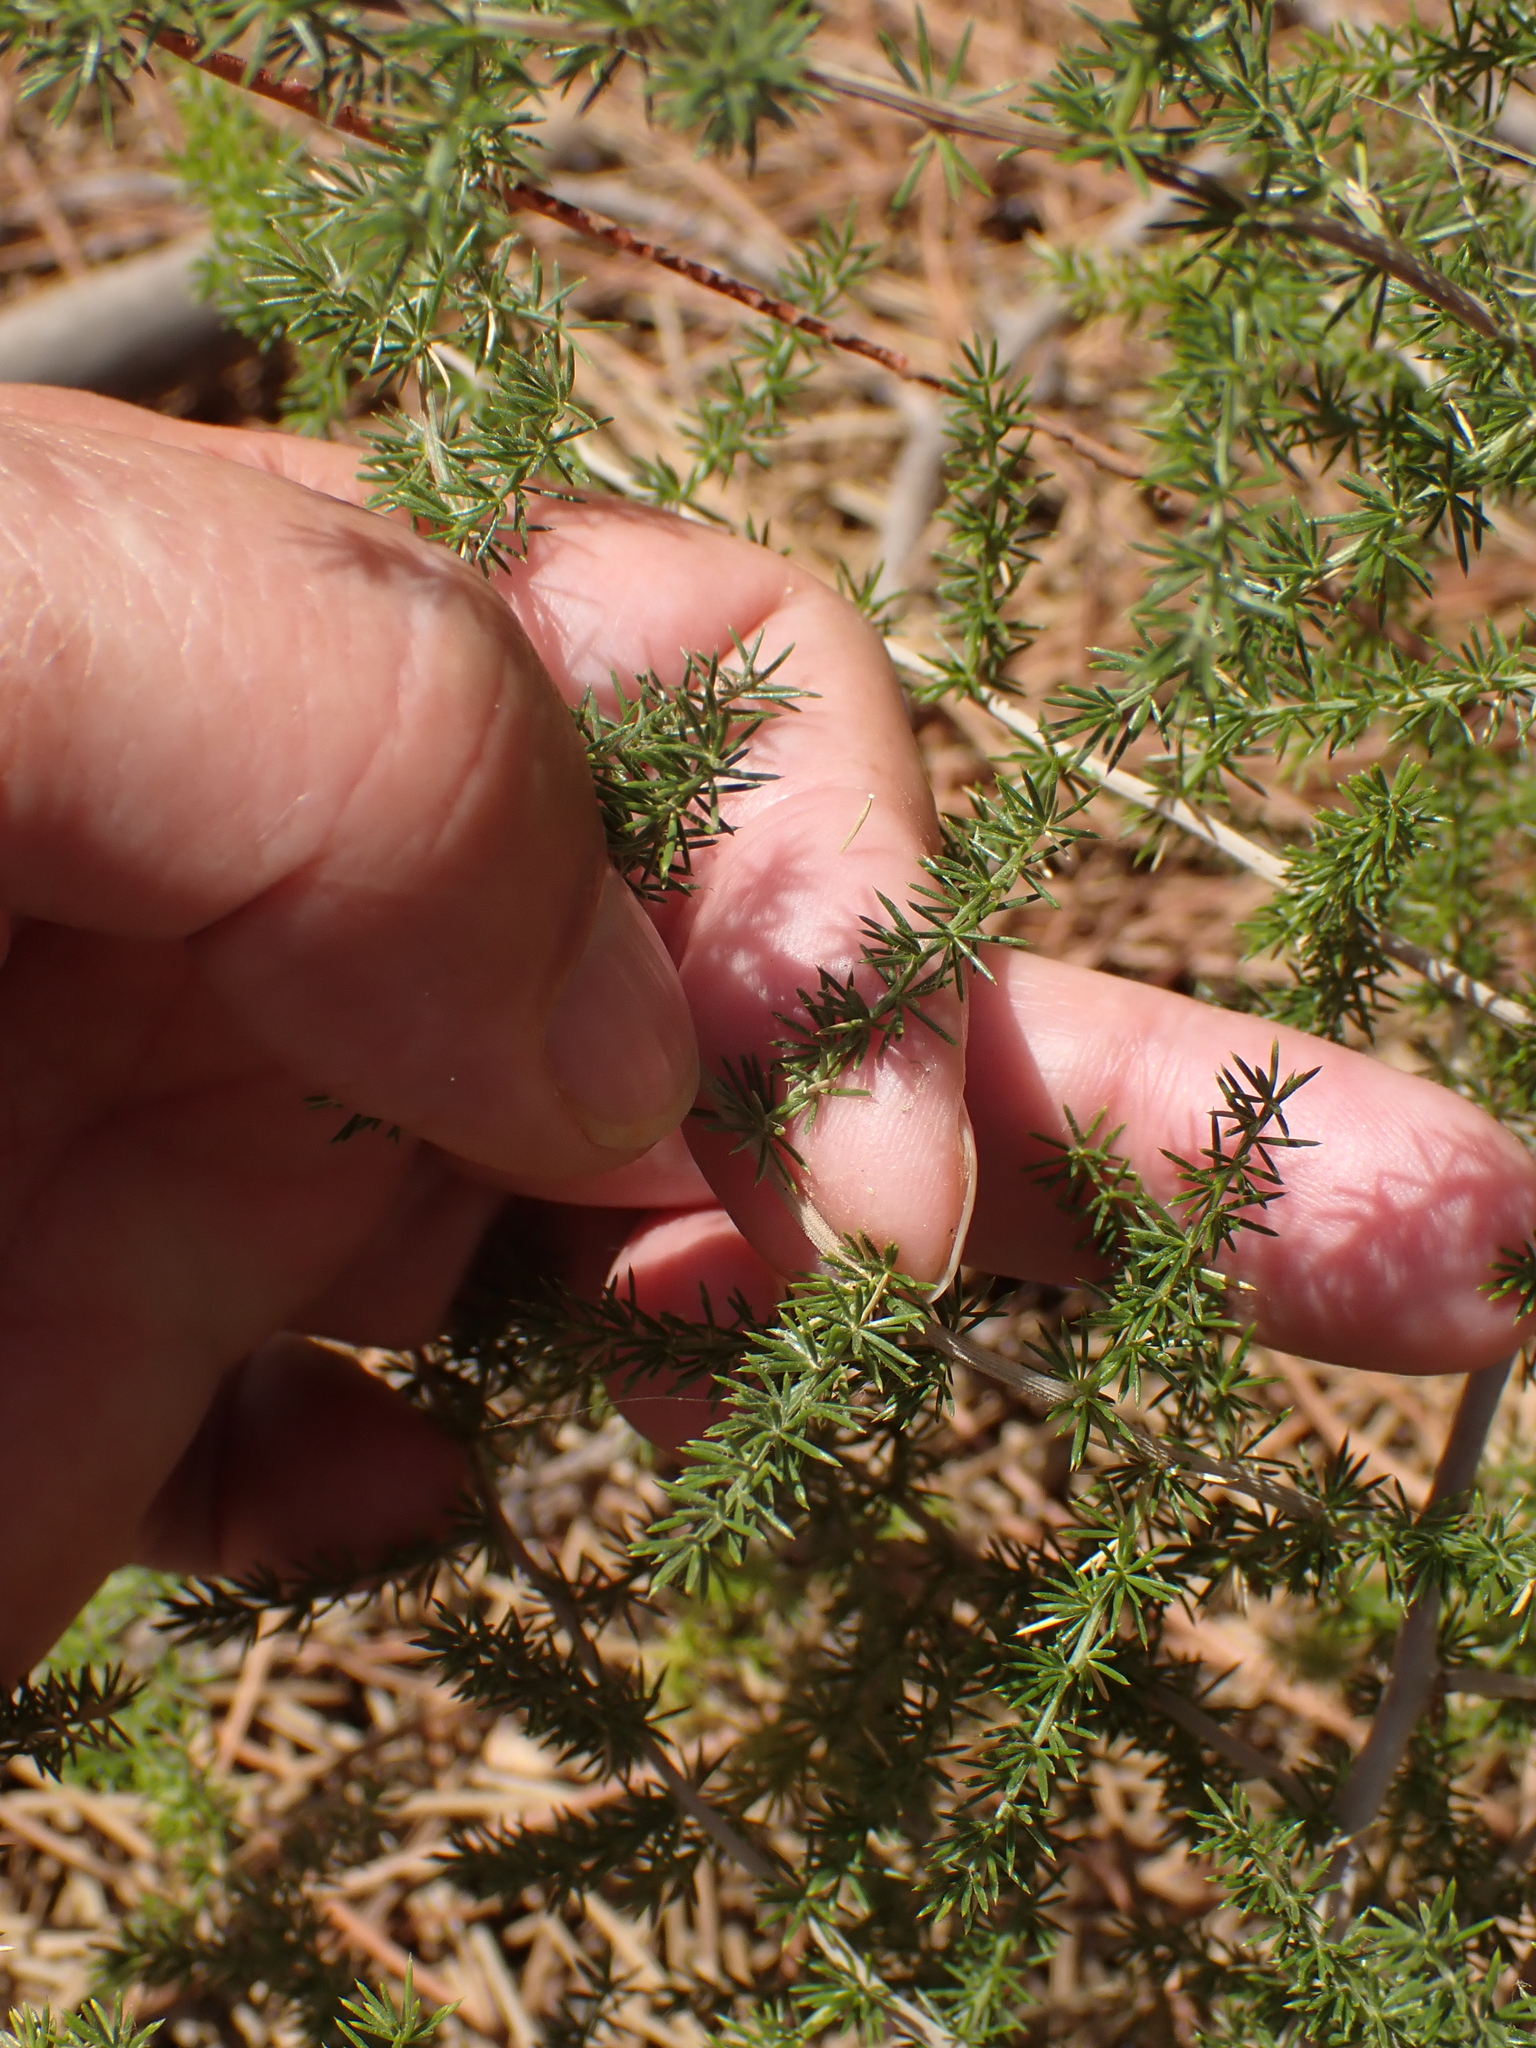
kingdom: Plantae
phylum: Tracheophyta
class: Liliopsida
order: Asparagales
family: Asparagaceae
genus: Asparagus
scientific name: Asparagus acutifolius
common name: Wild asparagus
